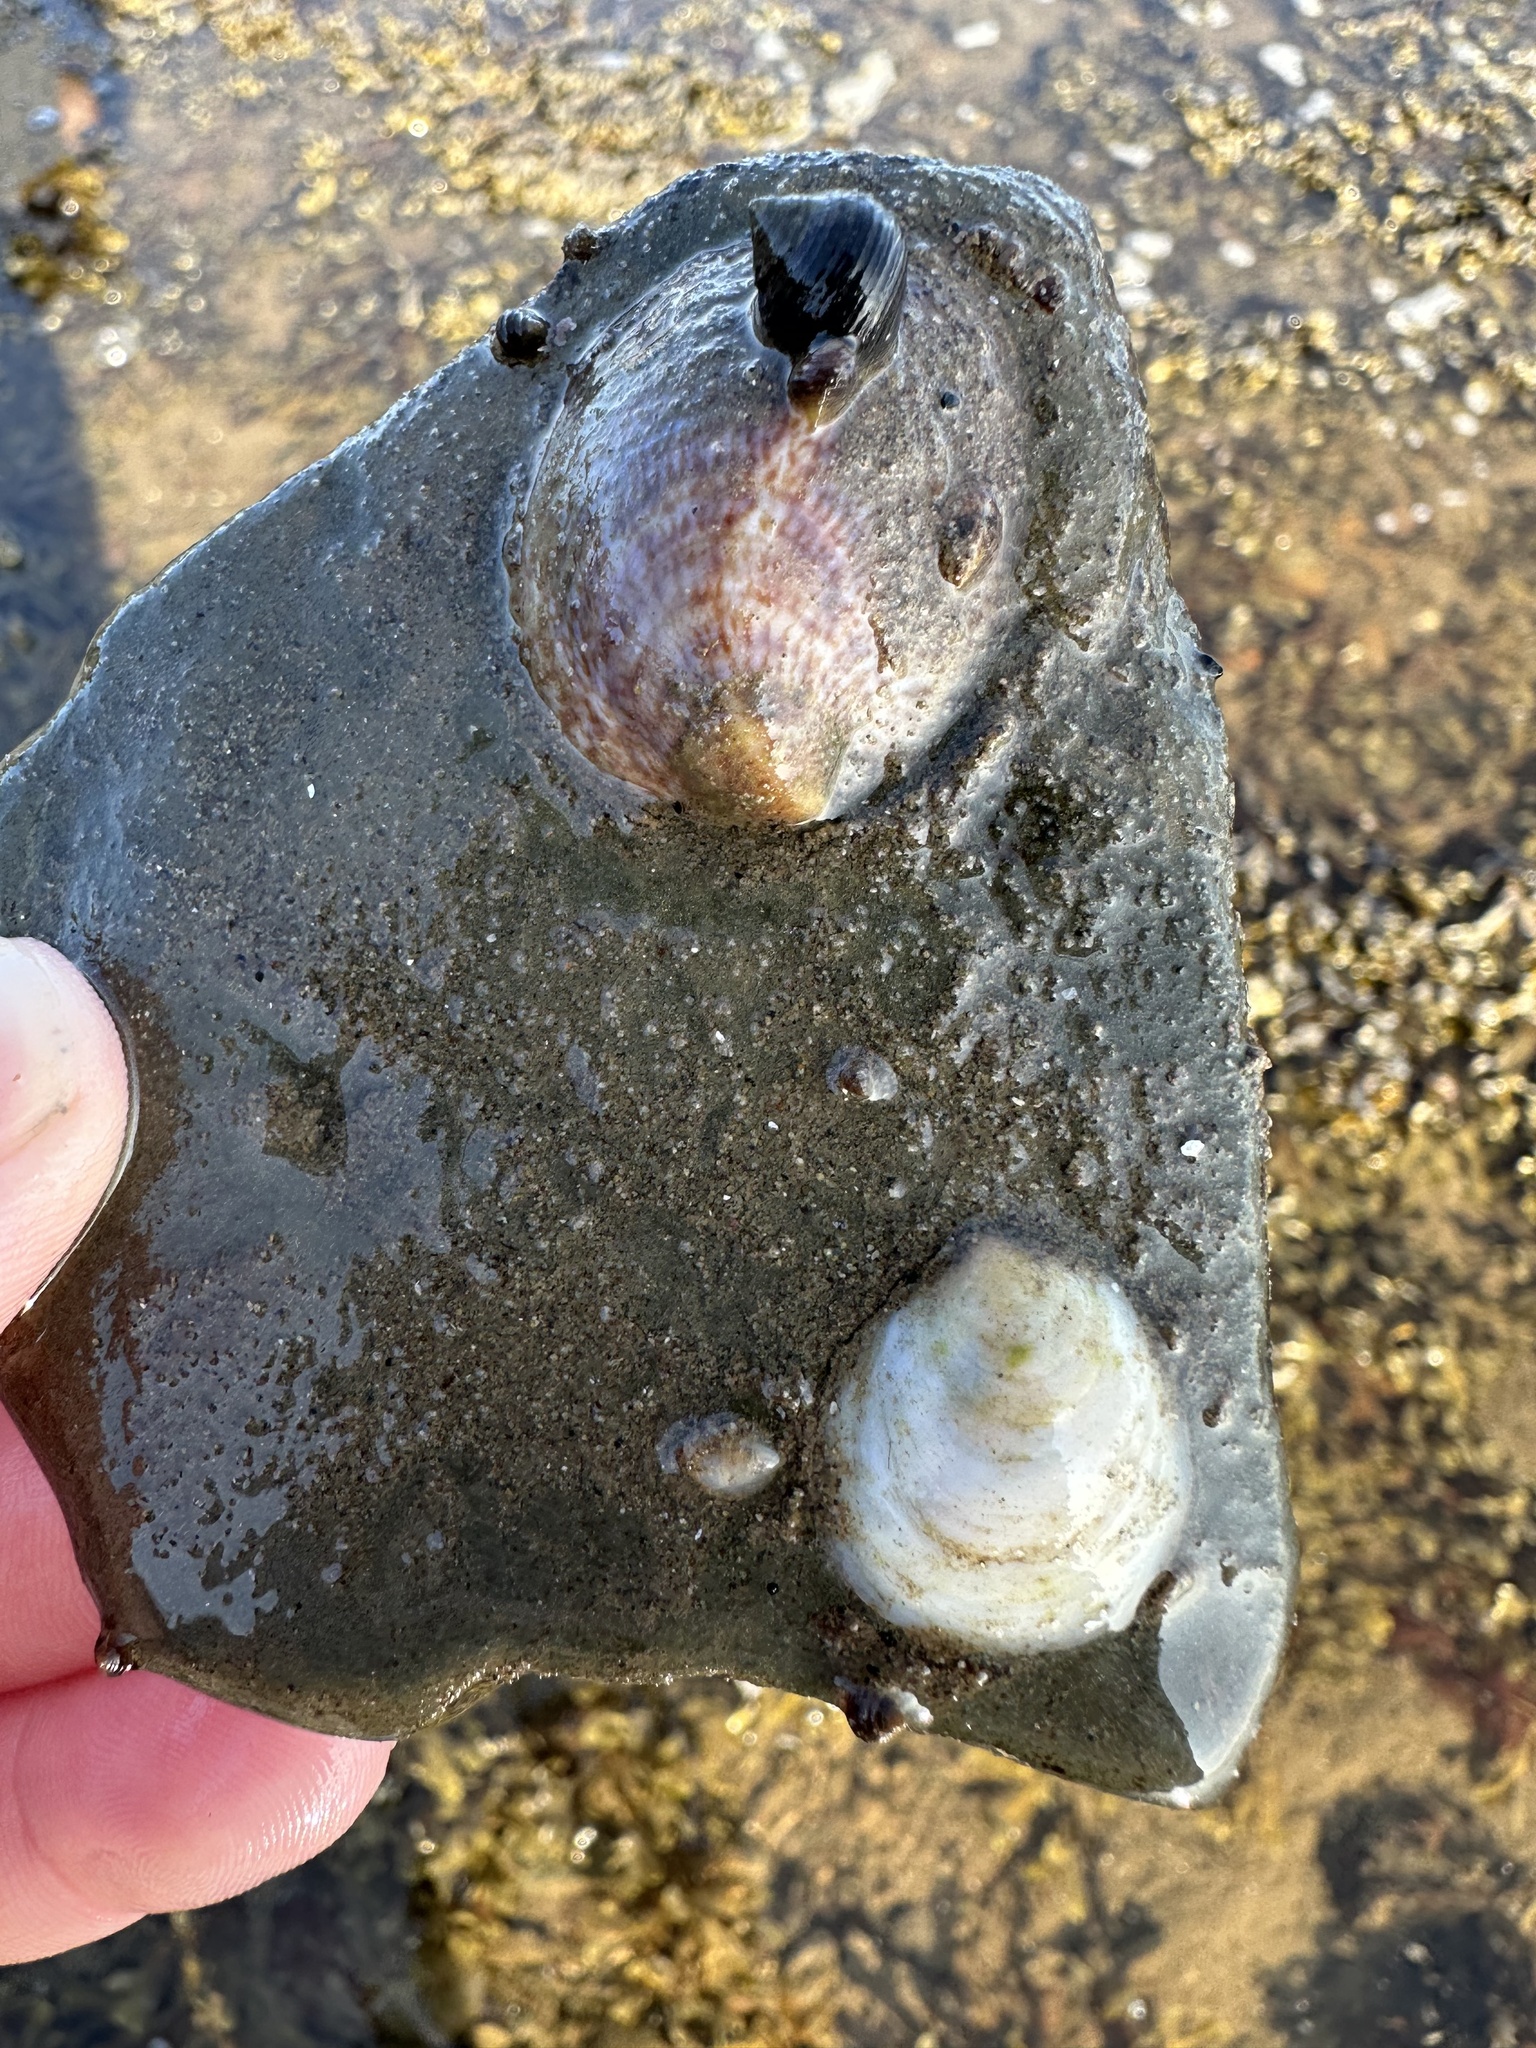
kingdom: Animalia
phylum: Mollusca
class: Gastropoda
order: Littorinimorpha
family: Calyptraeidae
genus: Crepidula
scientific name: Crepidula plana
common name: Eastern white slippersnail
